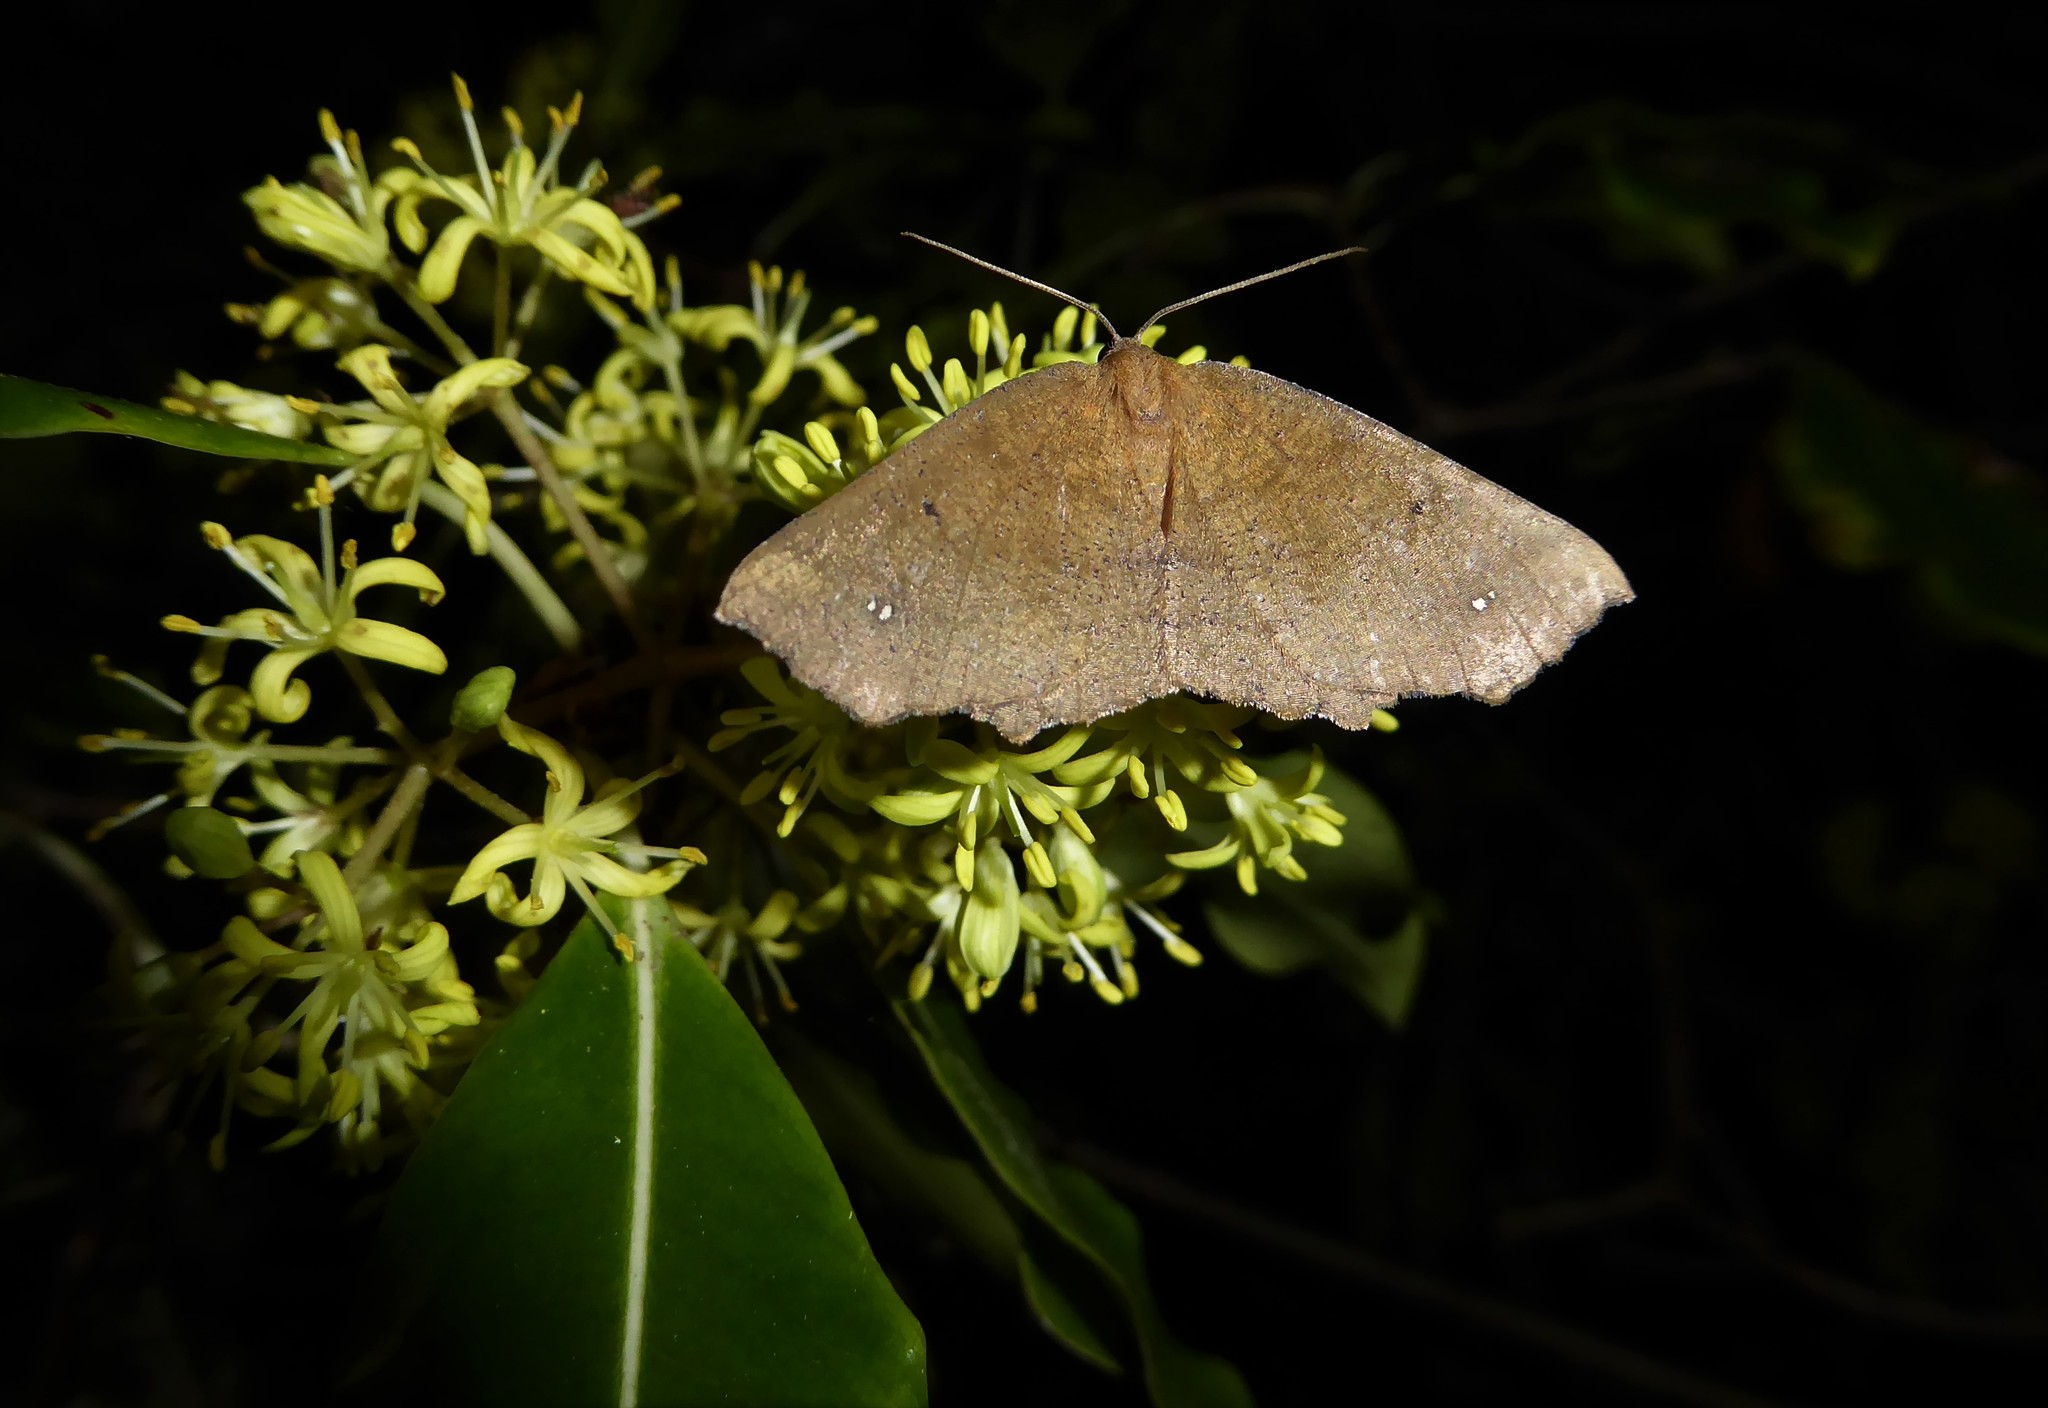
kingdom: Animalia
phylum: Arthropoda
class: Insecta
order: Lepidoptera
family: Geometridae
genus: Xyridacma
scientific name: Xyridacma ustaria
